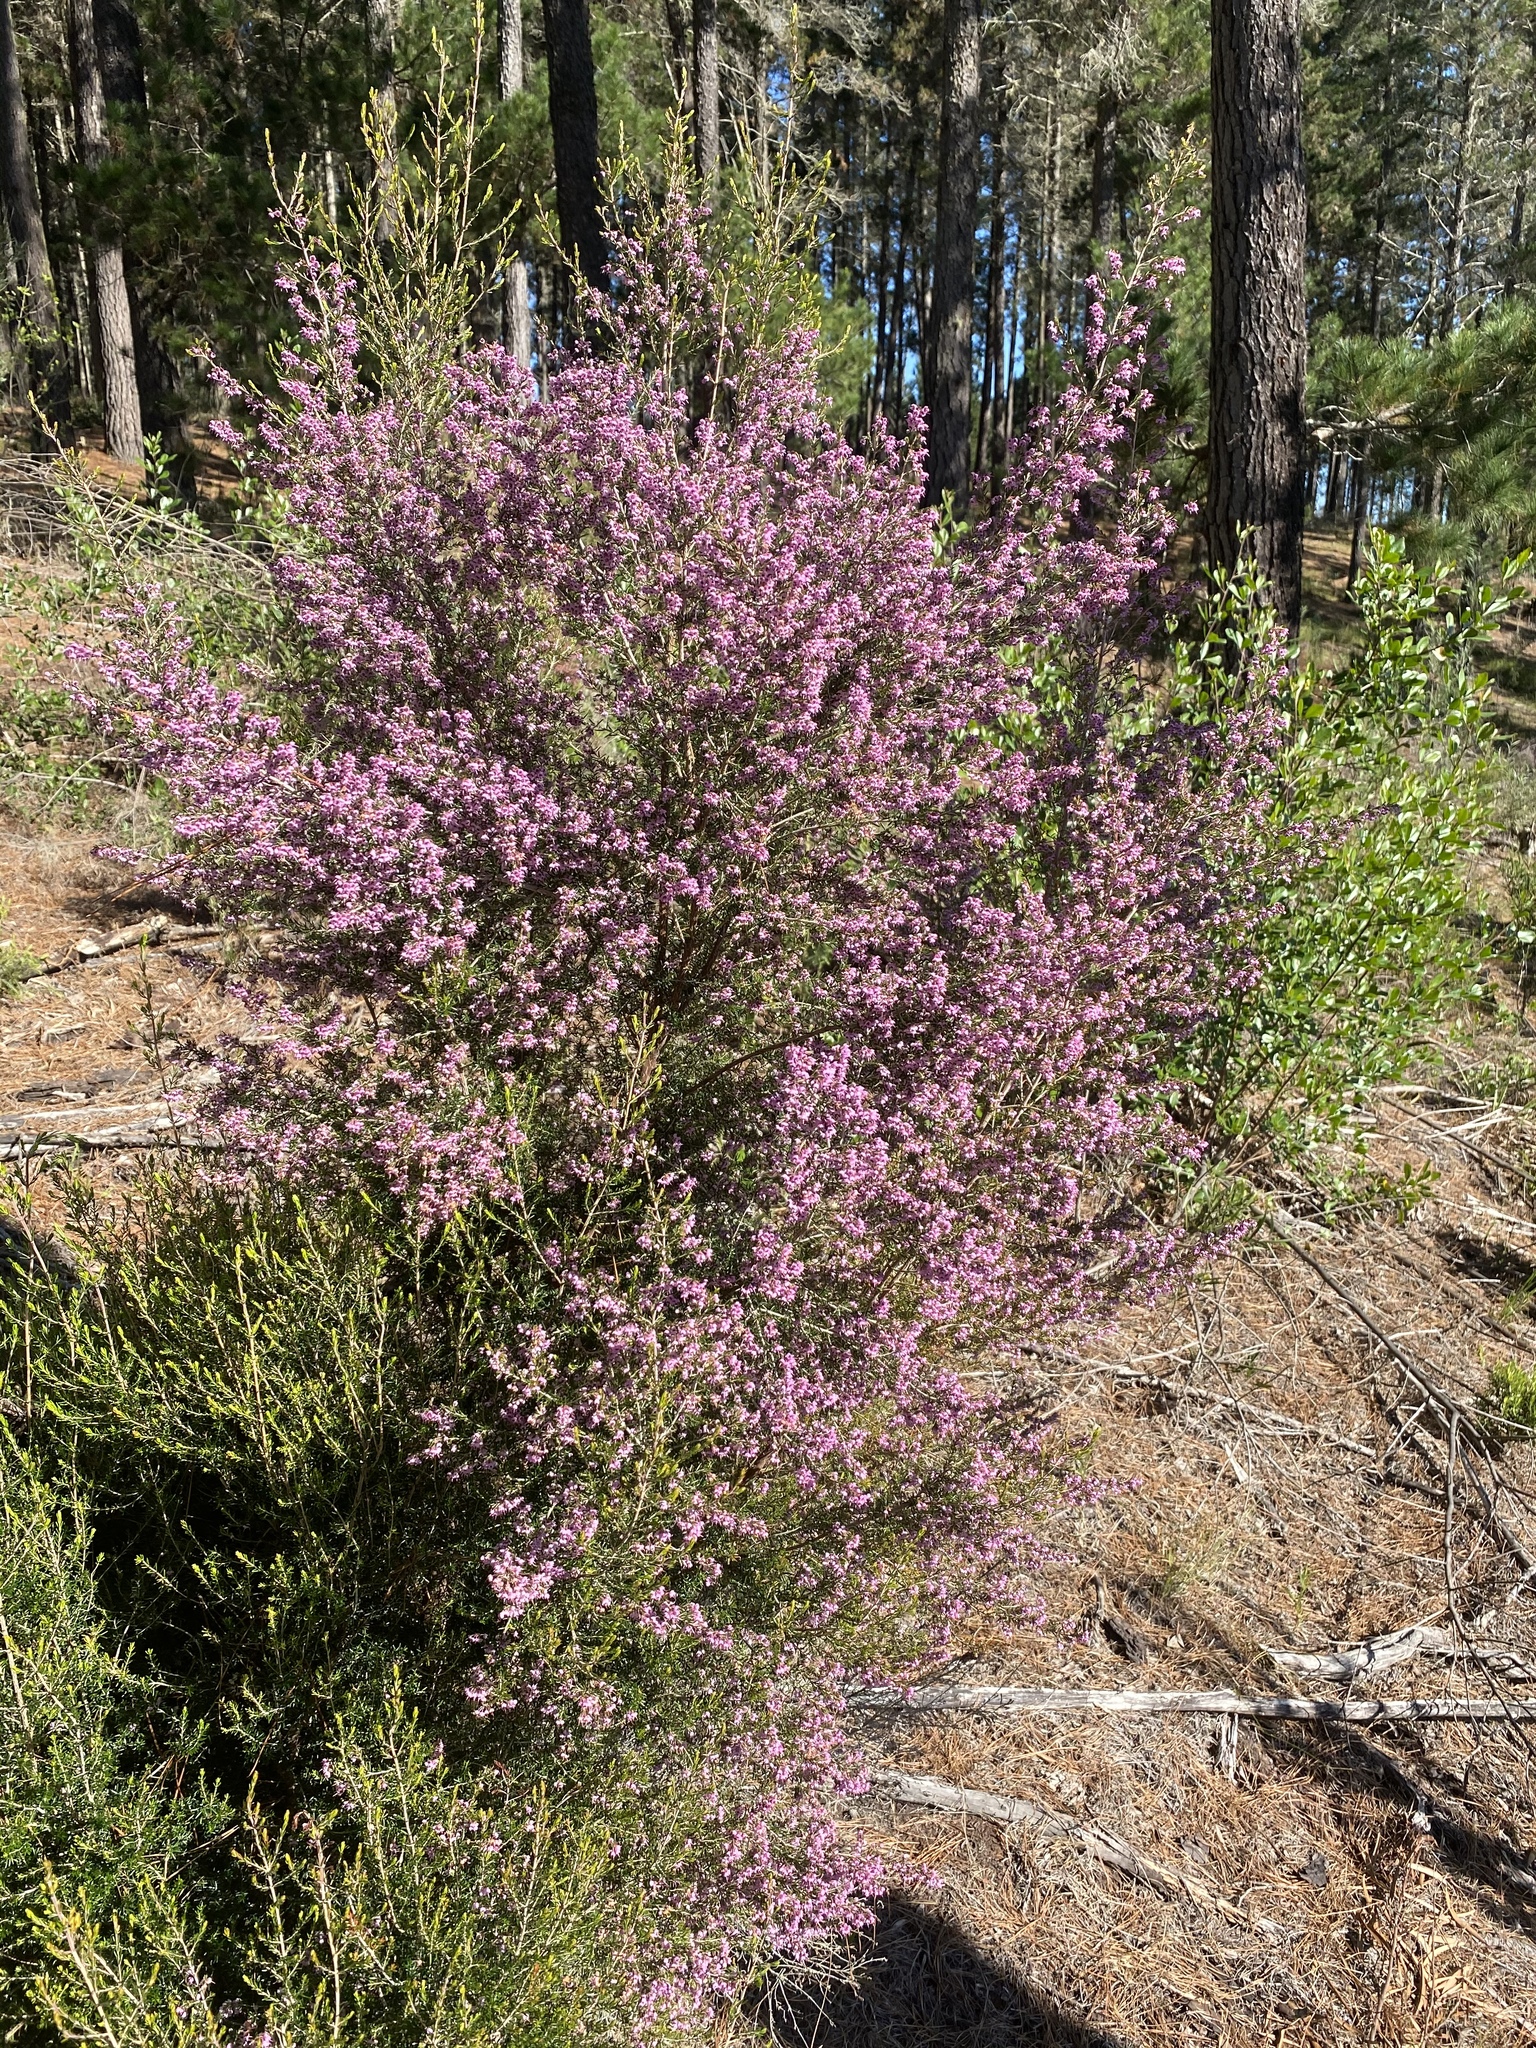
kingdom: Plantae
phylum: Tracheophyta
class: Magnoliopsida
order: Ericales
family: Ericaceae
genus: Erica
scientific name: Erica canaliculata
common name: Hairy grey heather
